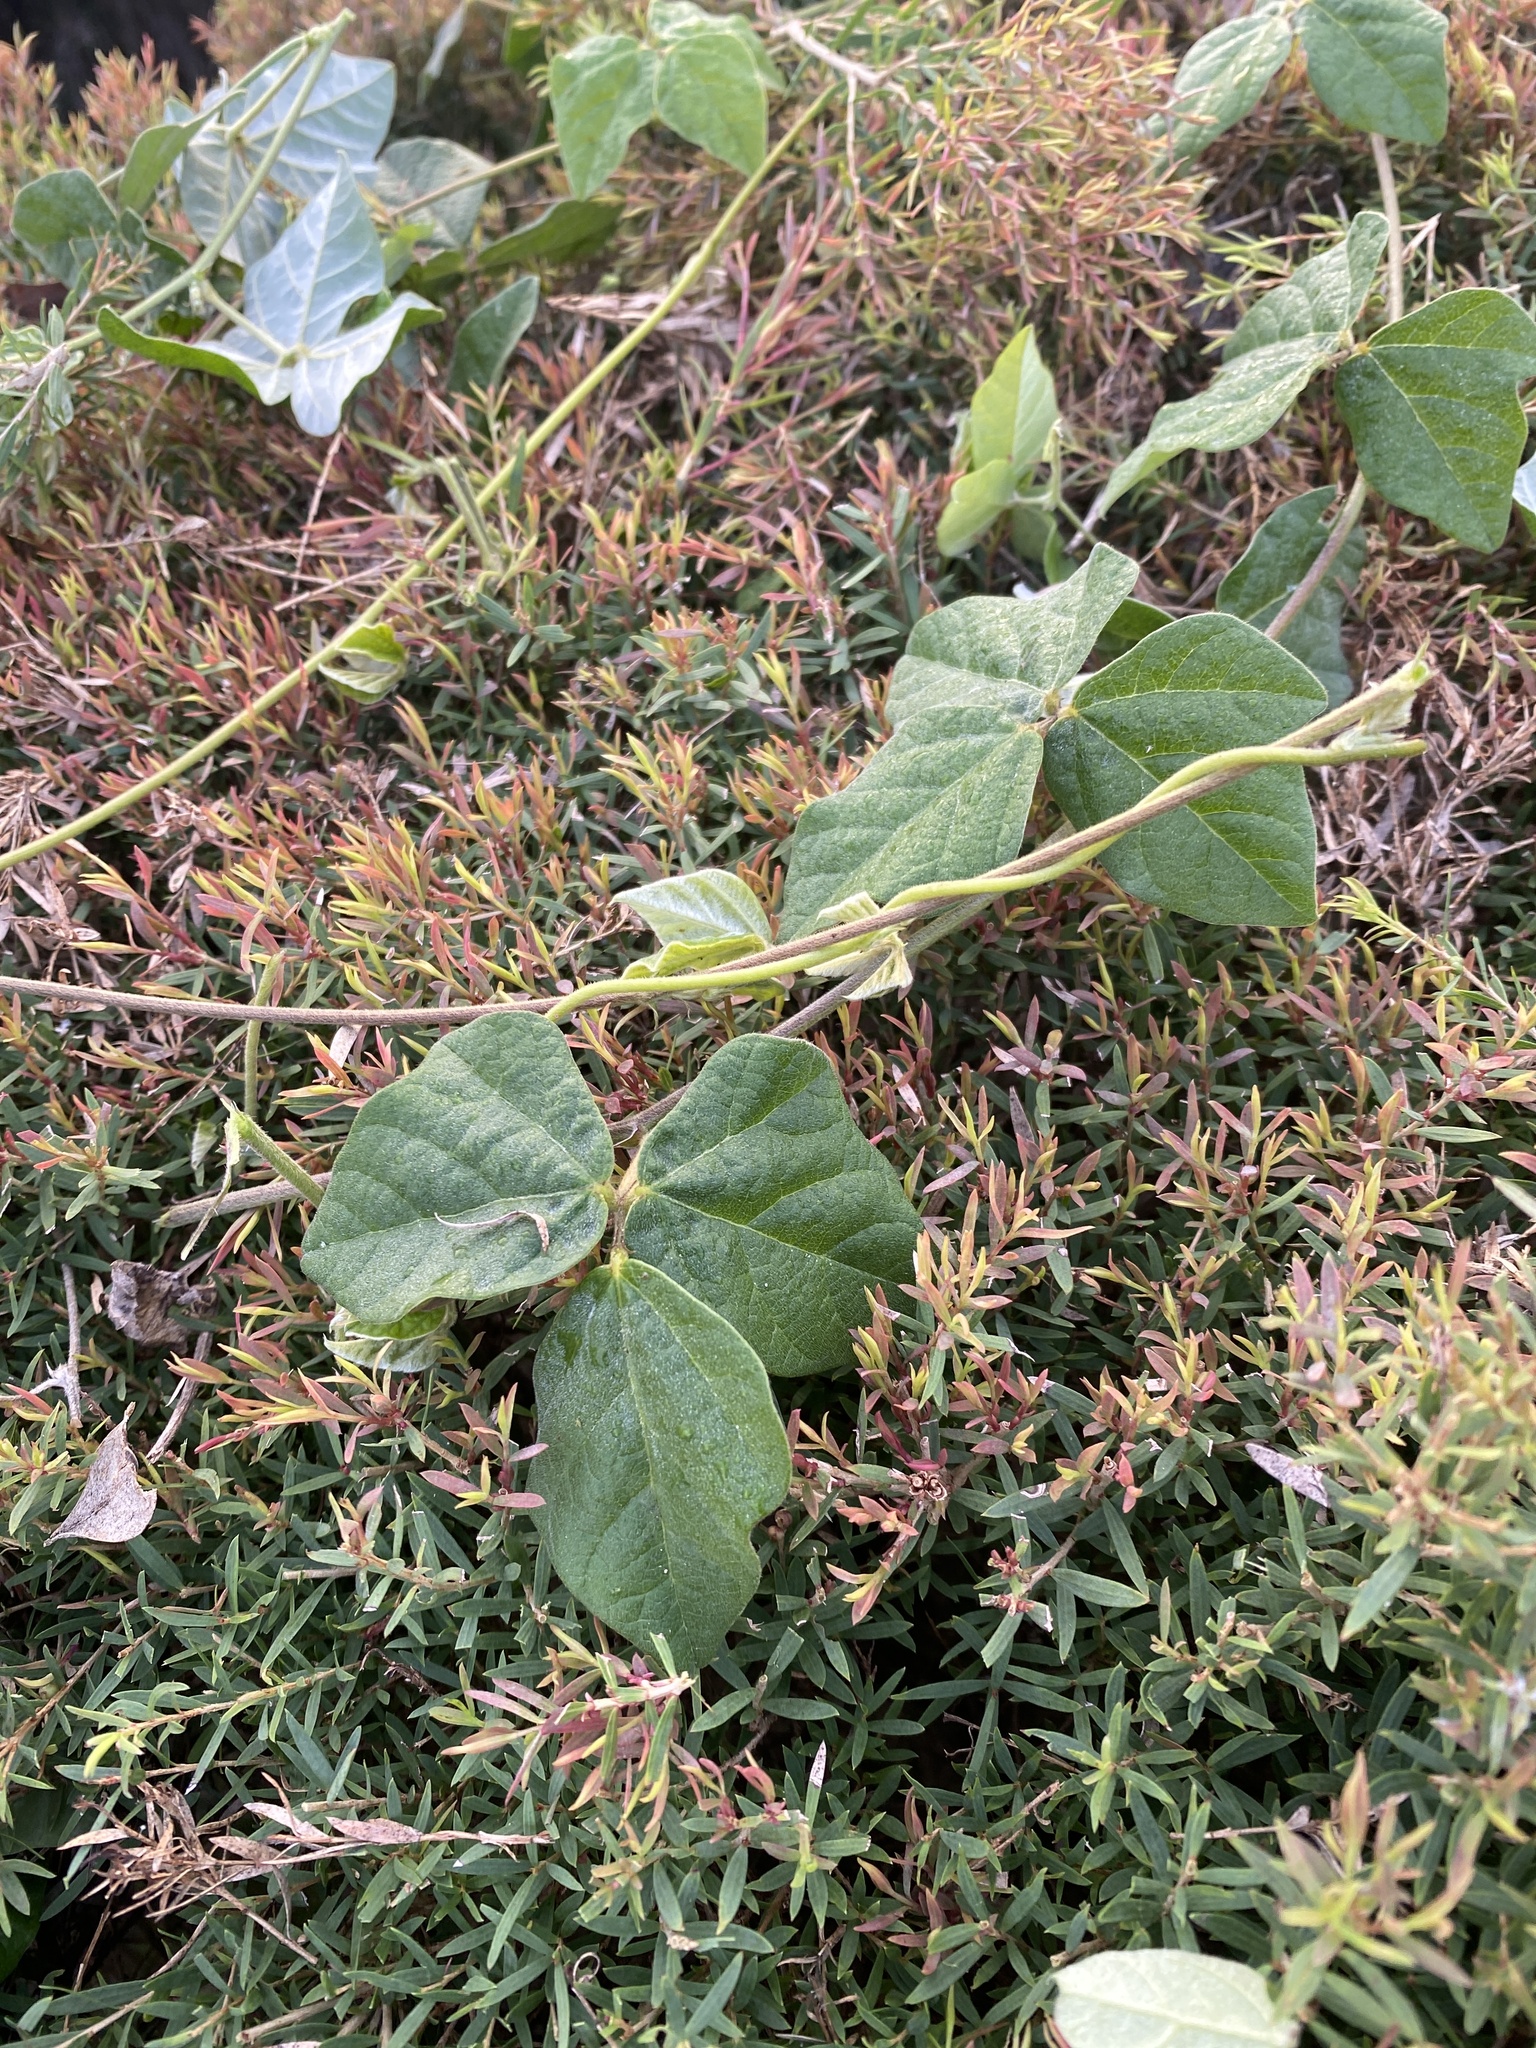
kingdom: Plantae
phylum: Tracheophyta
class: Magnoliopsida
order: Fabales
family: Fabaceae
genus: Macroptilium
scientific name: Macroptilium atropurpureum
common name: Purple bushbean
